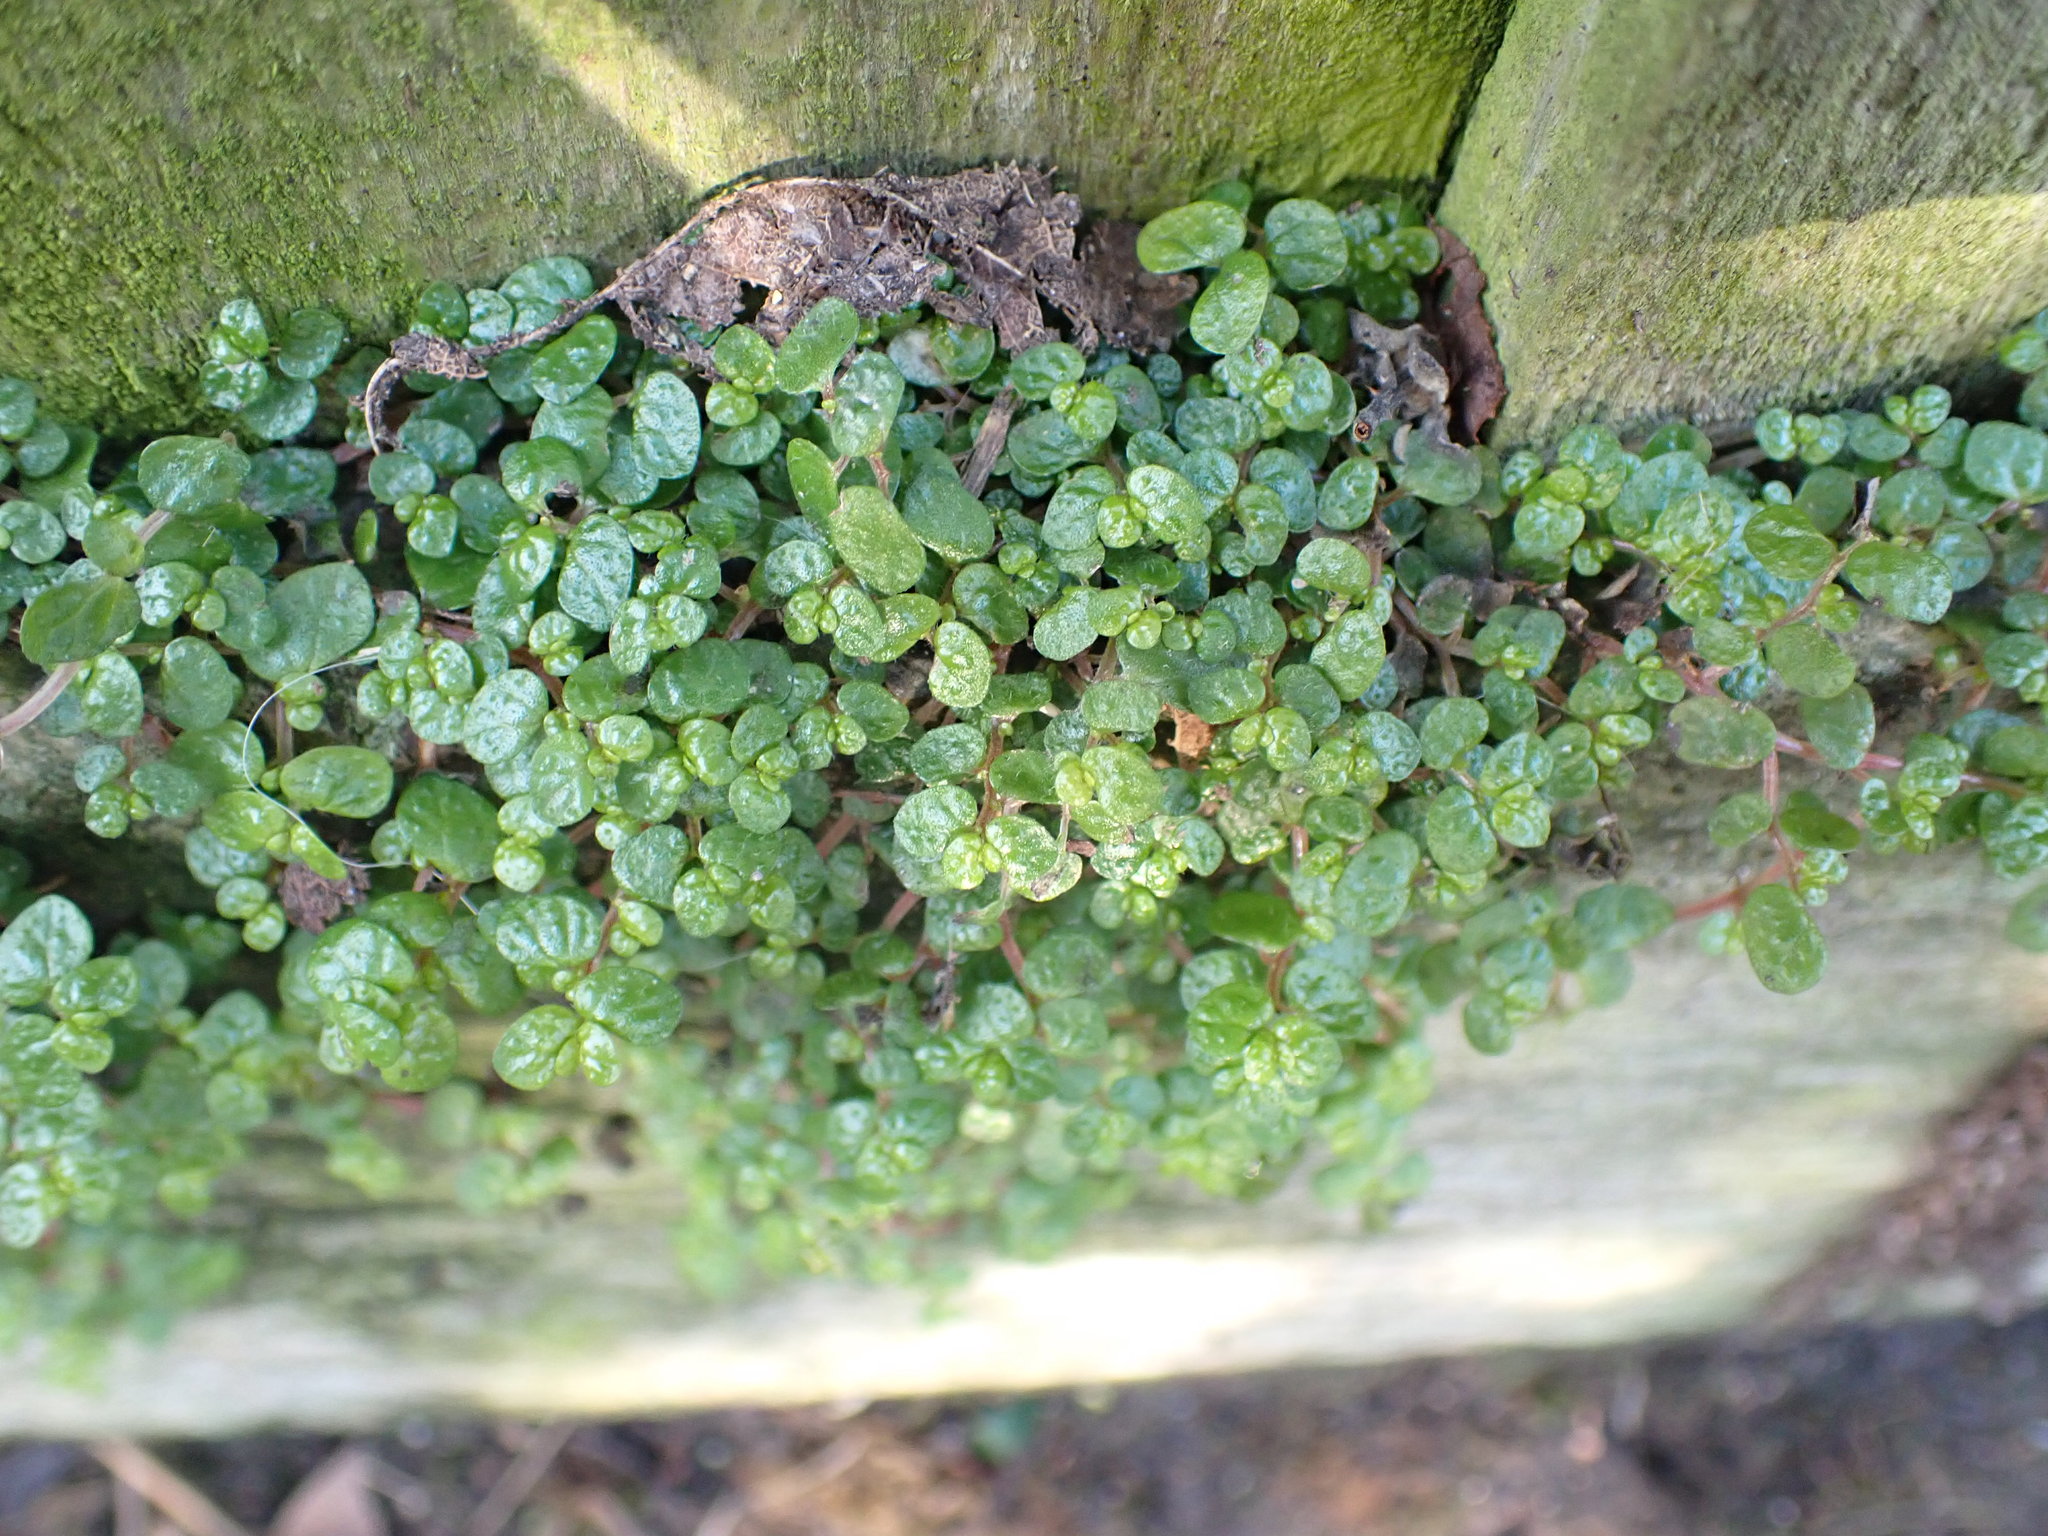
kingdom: Plantae
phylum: Tracheophyta
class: Magnoliopsida
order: Rosales
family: Urticaceae
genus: Soleirolia
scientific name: Soleirolia soleirolii
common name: Mind-your-own-business
